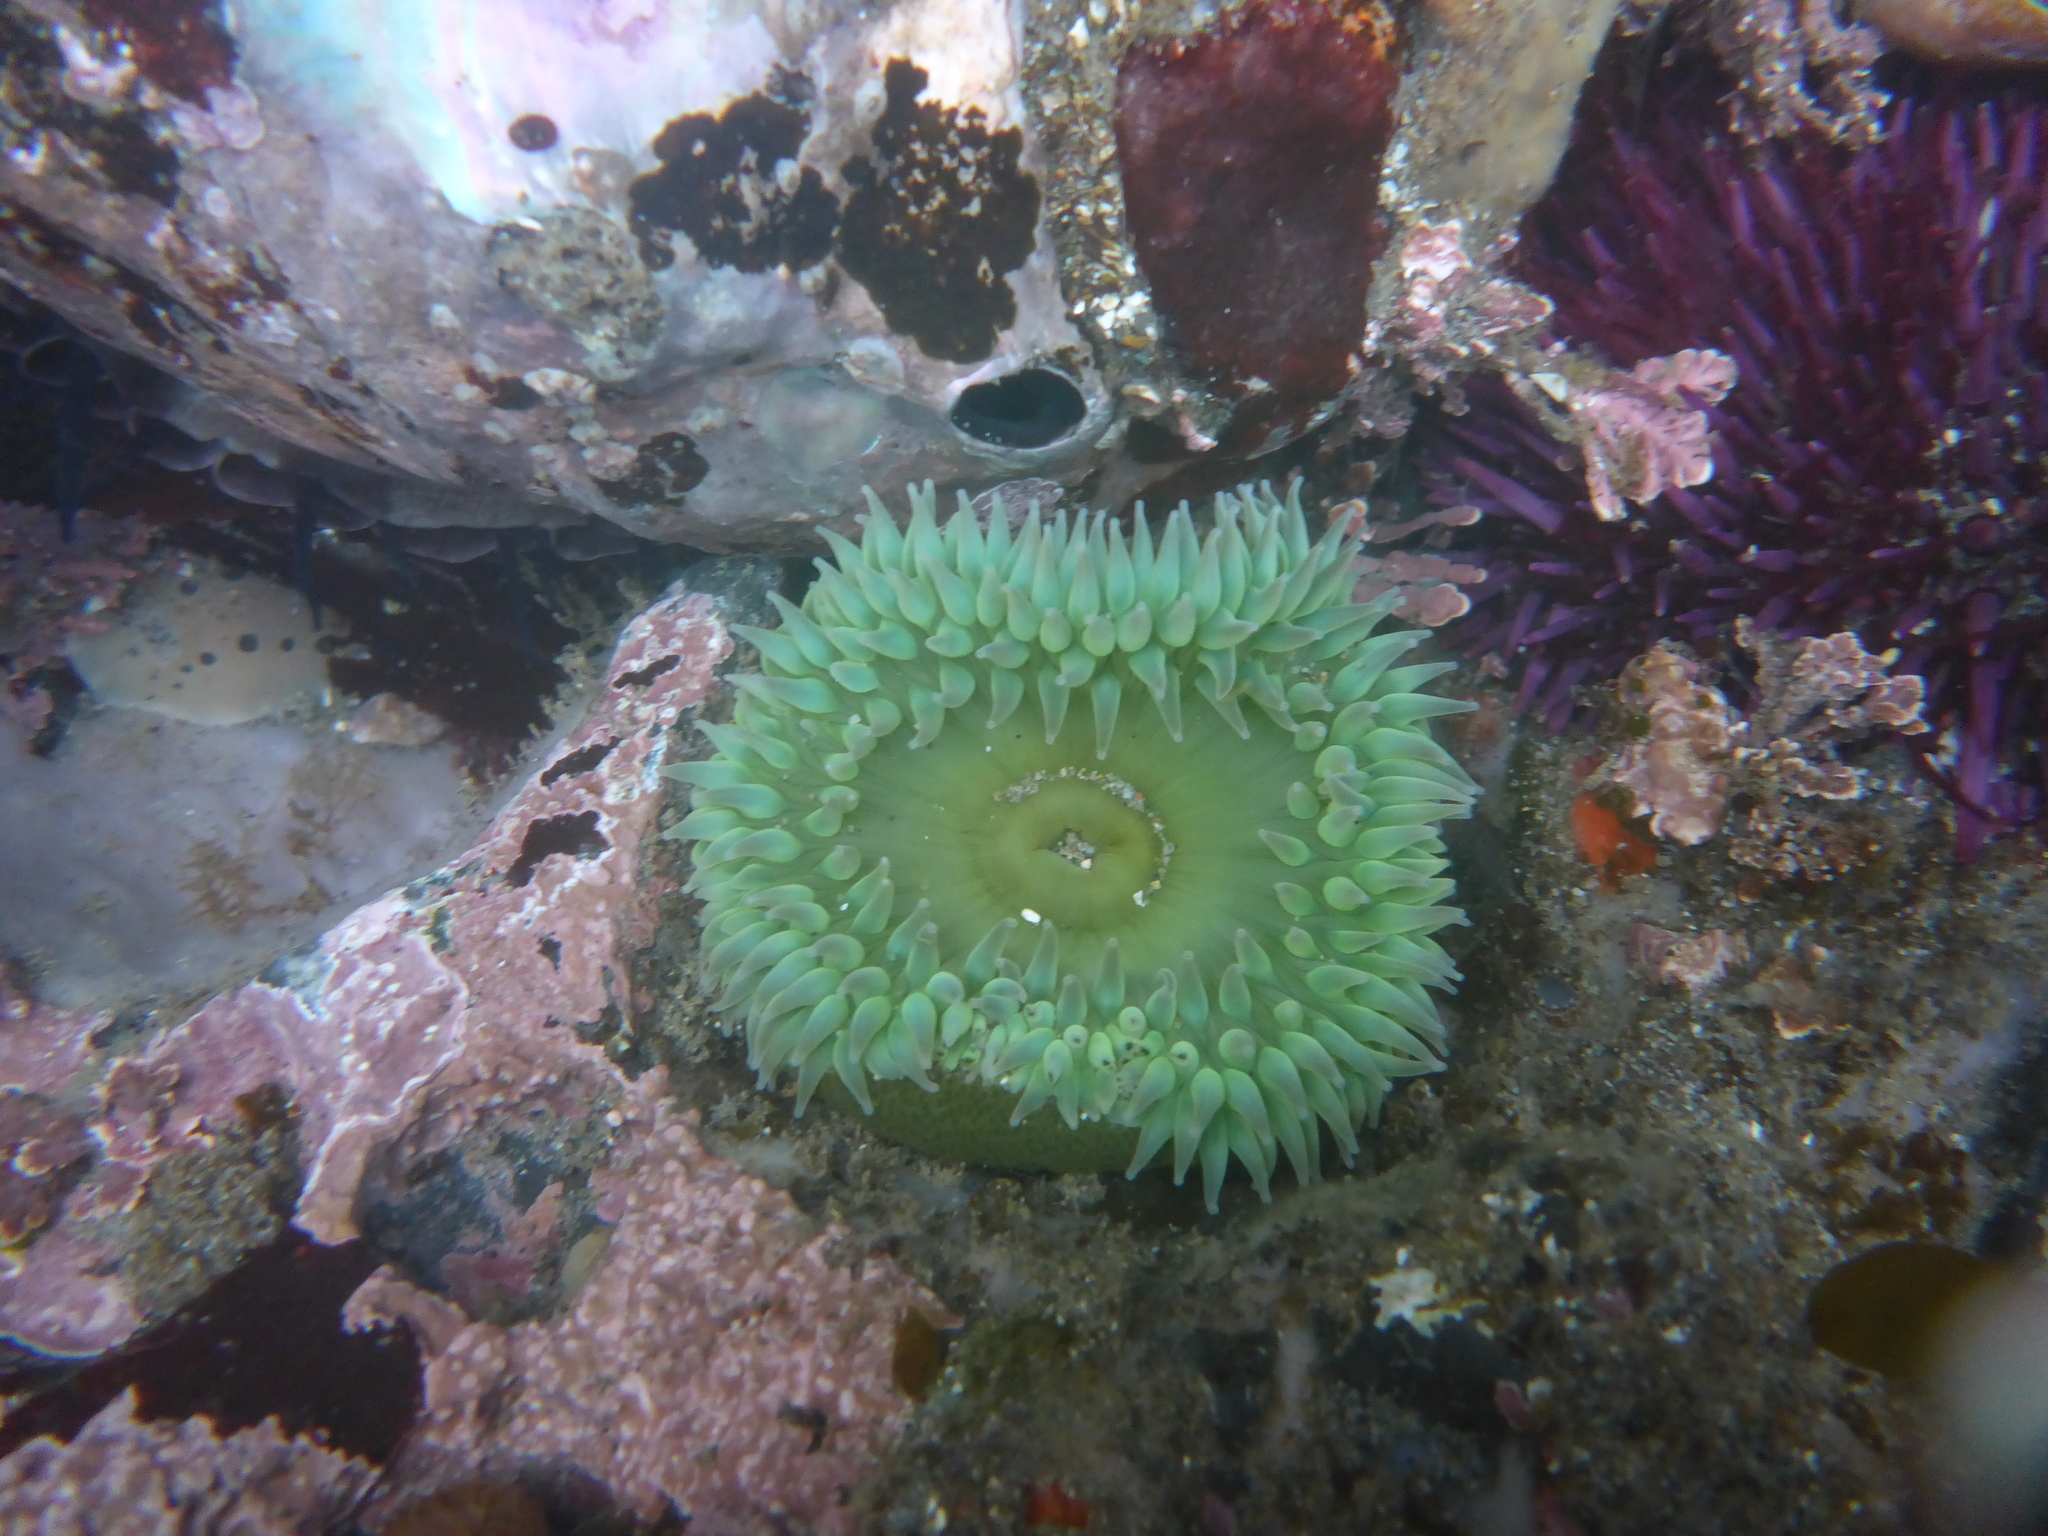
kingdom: Animalia
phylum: Cnidaria
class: Anthozoa
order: Actiniaria
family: Actiniidae
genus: Anthopleura
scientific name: Anthopleura xanthogrammica
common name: Giant green anemone
